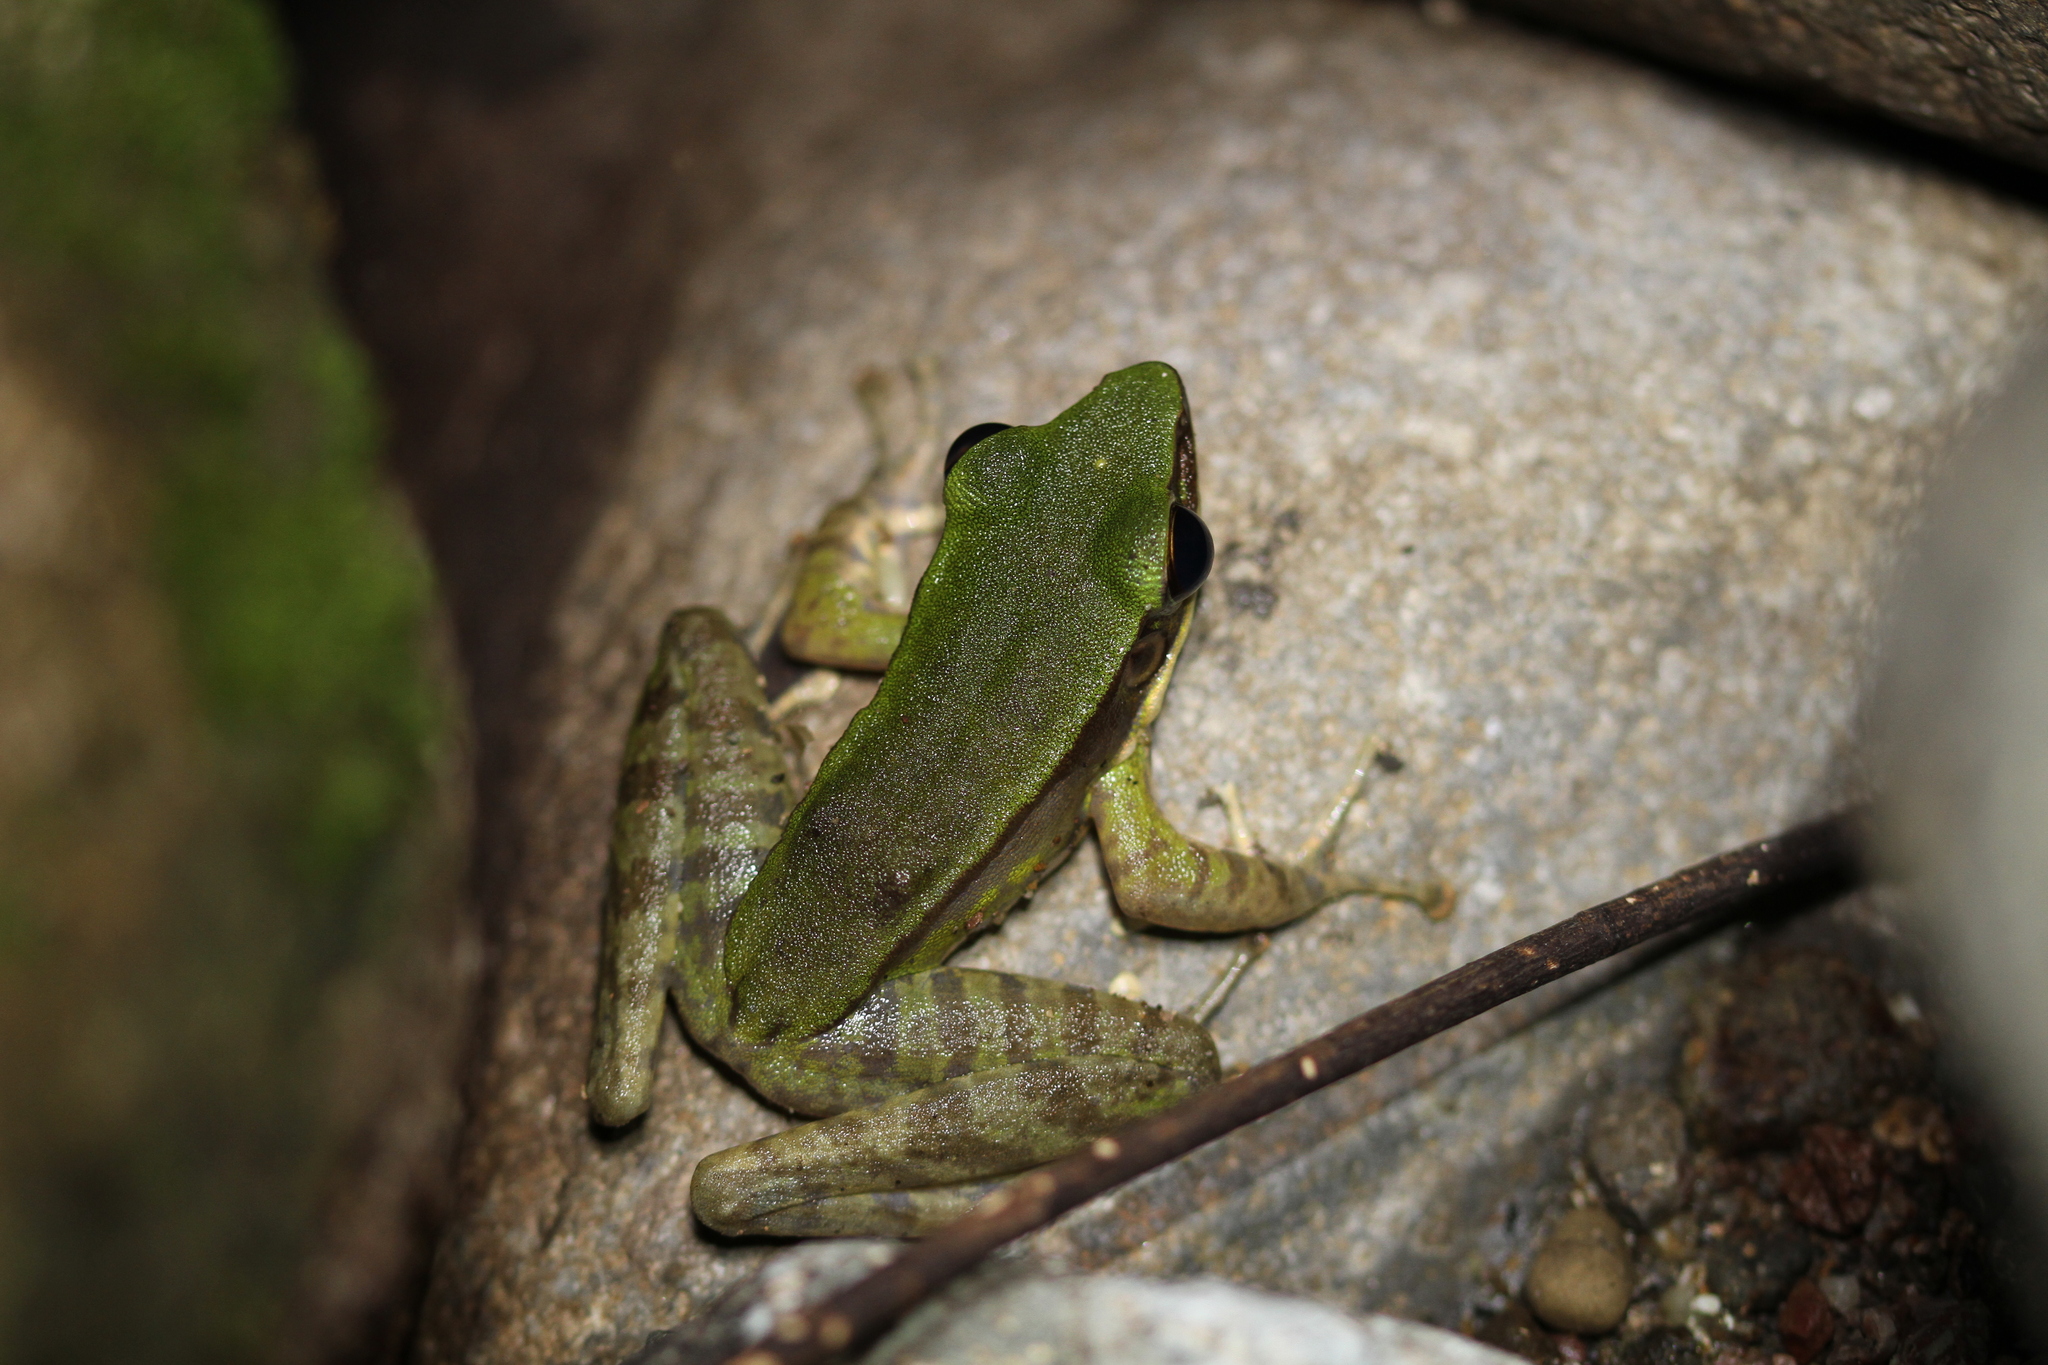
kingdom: Animalia
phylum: Chordata
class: Amphibia
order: Anura
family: Ranidae
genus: Odorrana
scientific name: Odorrana hosii
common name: Green tree frog
